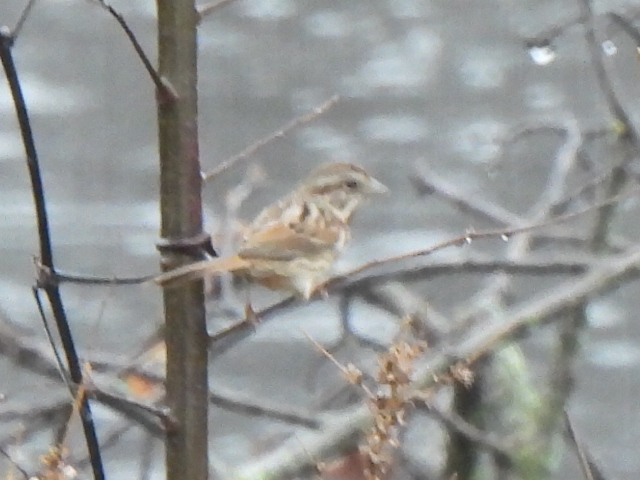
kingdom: Animalia
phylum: Chordata
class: Aves
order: Passeriformes
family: Passerellidae
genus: Melospiza
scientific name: Melospiza melodia
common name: Song sparrow
